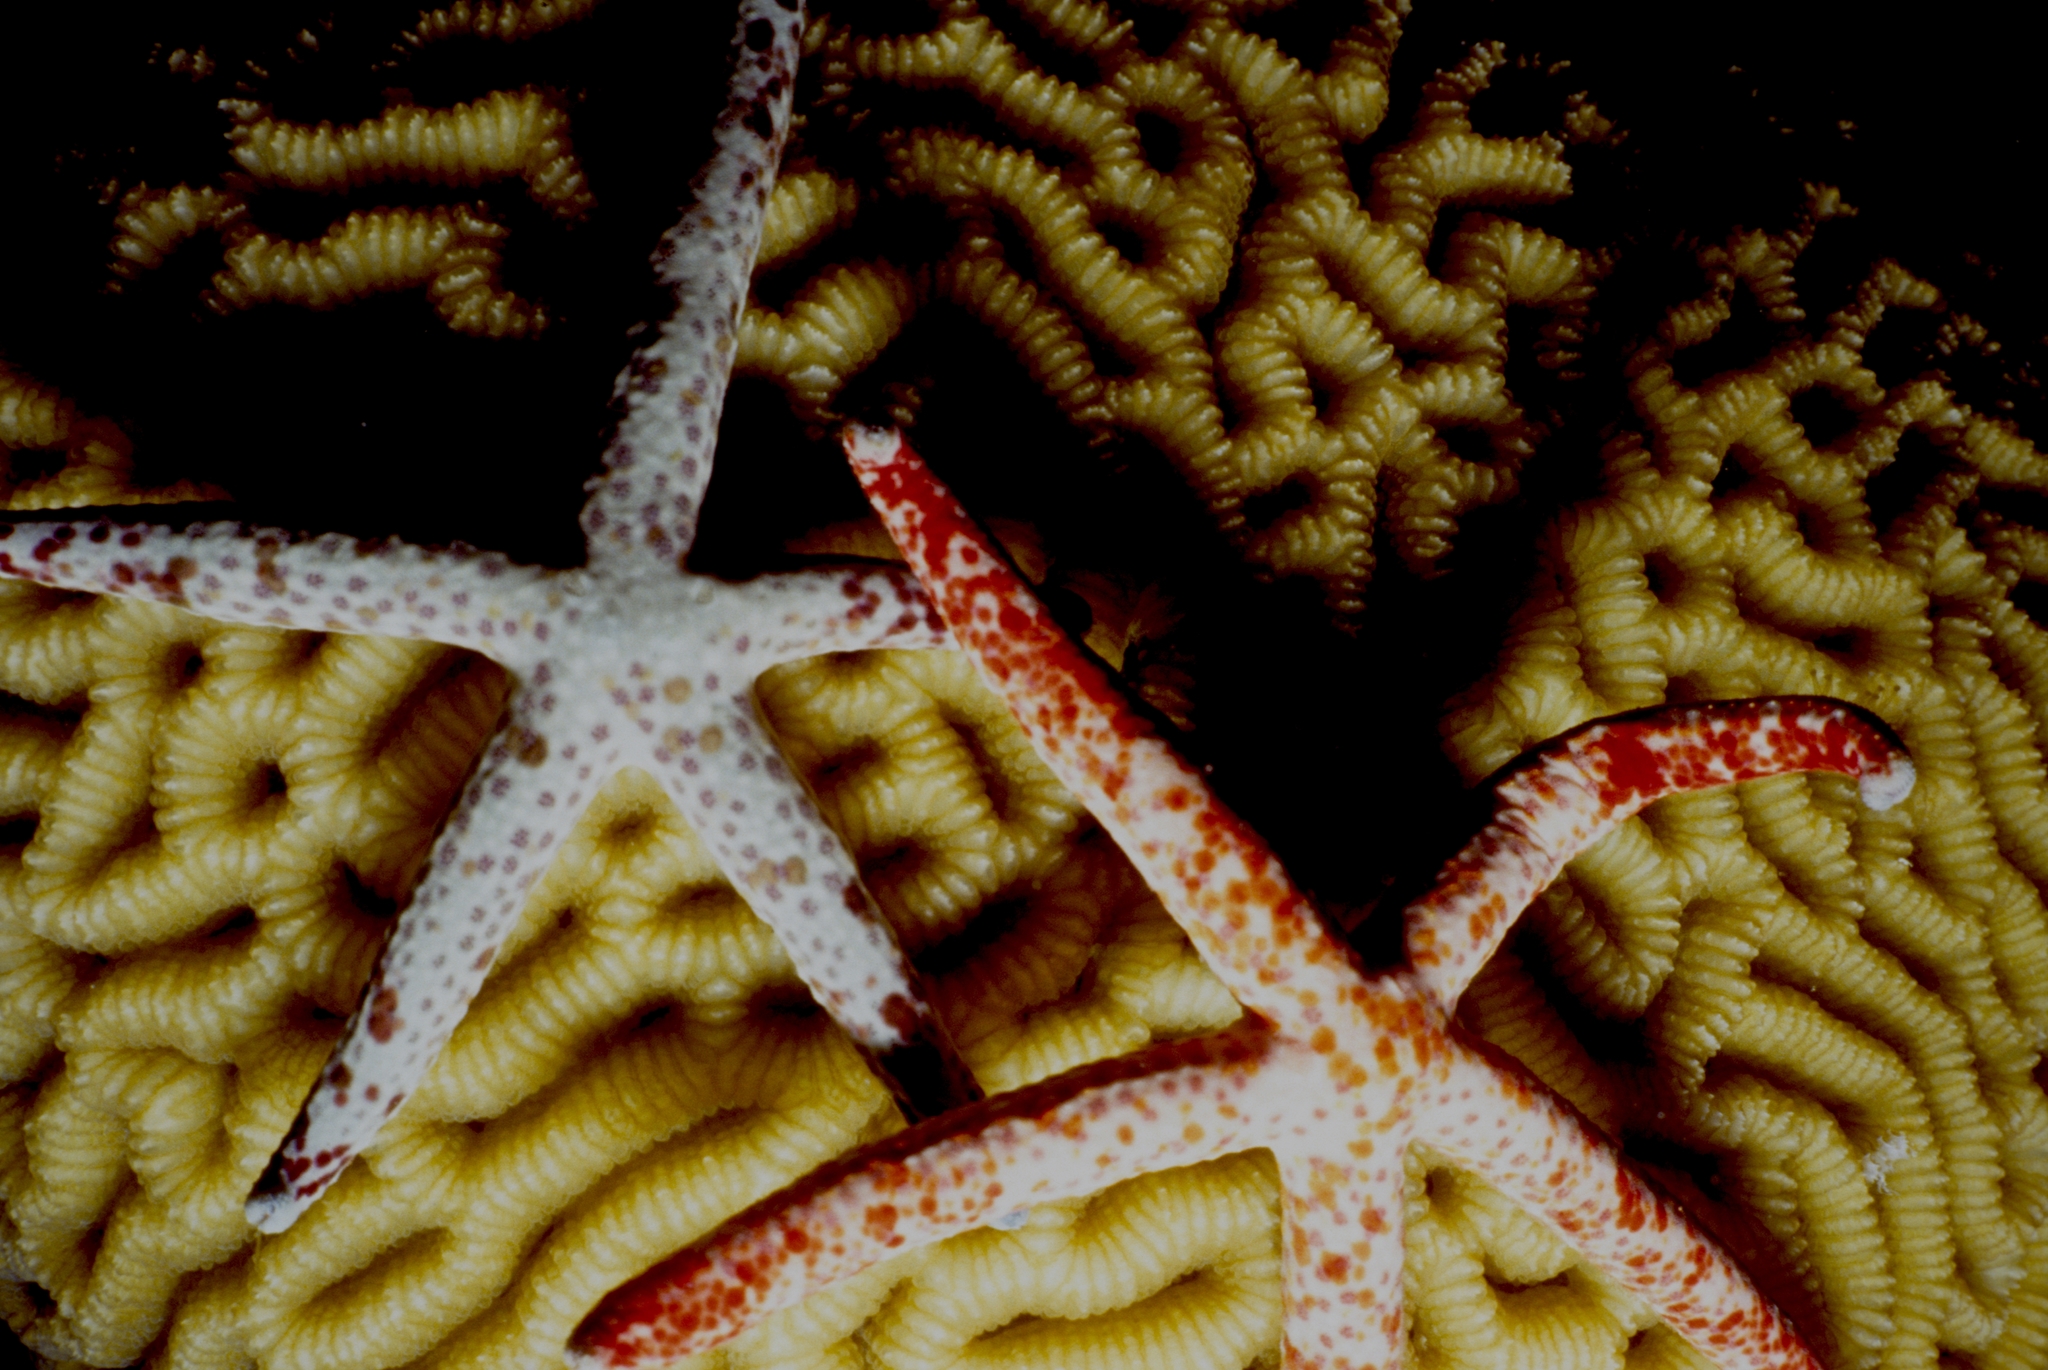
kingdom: Animalia
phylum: Echinodermata
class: Asteroidea
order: Valvatida
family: Ophidiasteridae
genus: Linckia
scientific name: Linckia multifora
